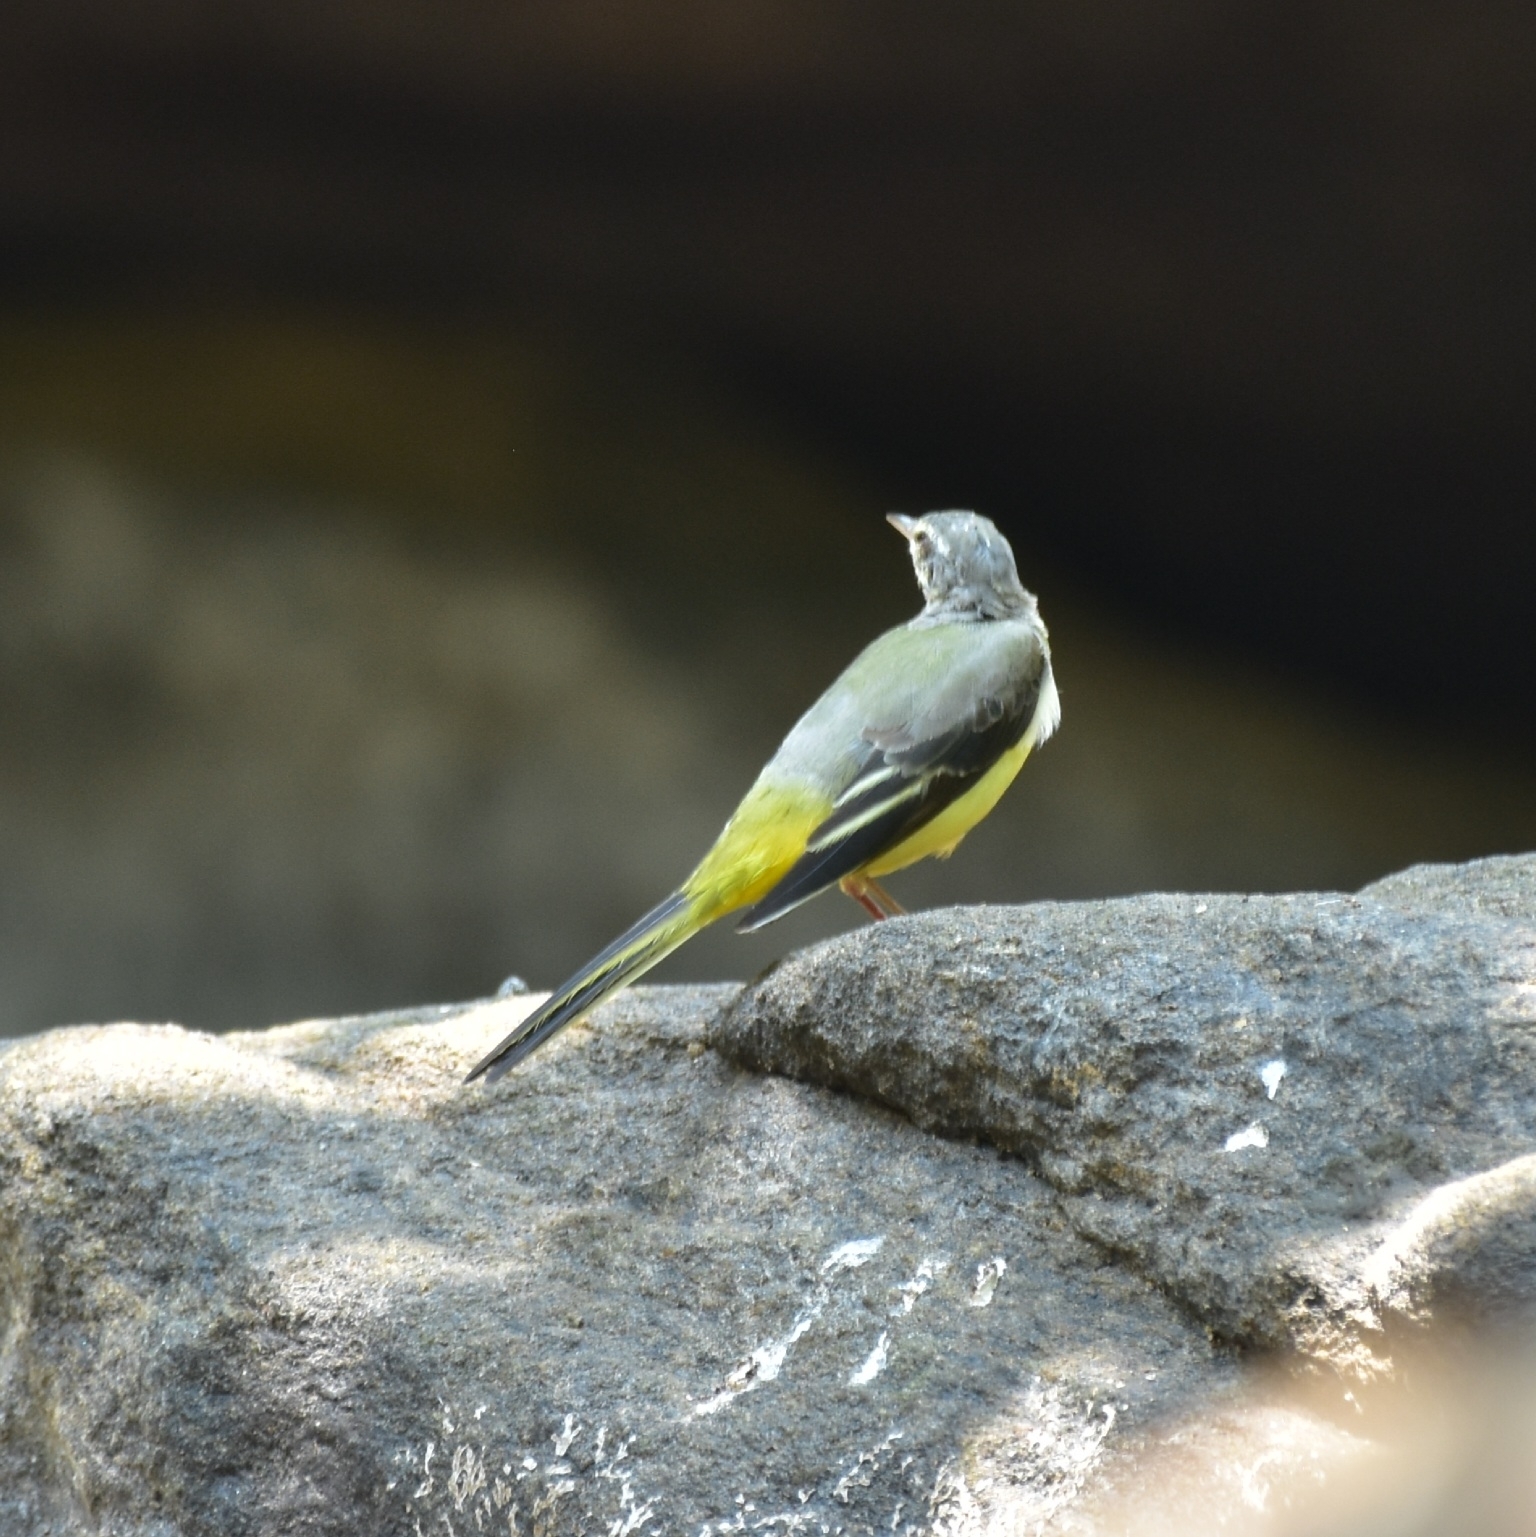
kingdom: Animalia
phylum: Chordata
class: Aves
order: Passeriformes
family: Motacillidae
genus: Motacilla
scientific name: Motacilla cinerea
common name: Grey wagtail
